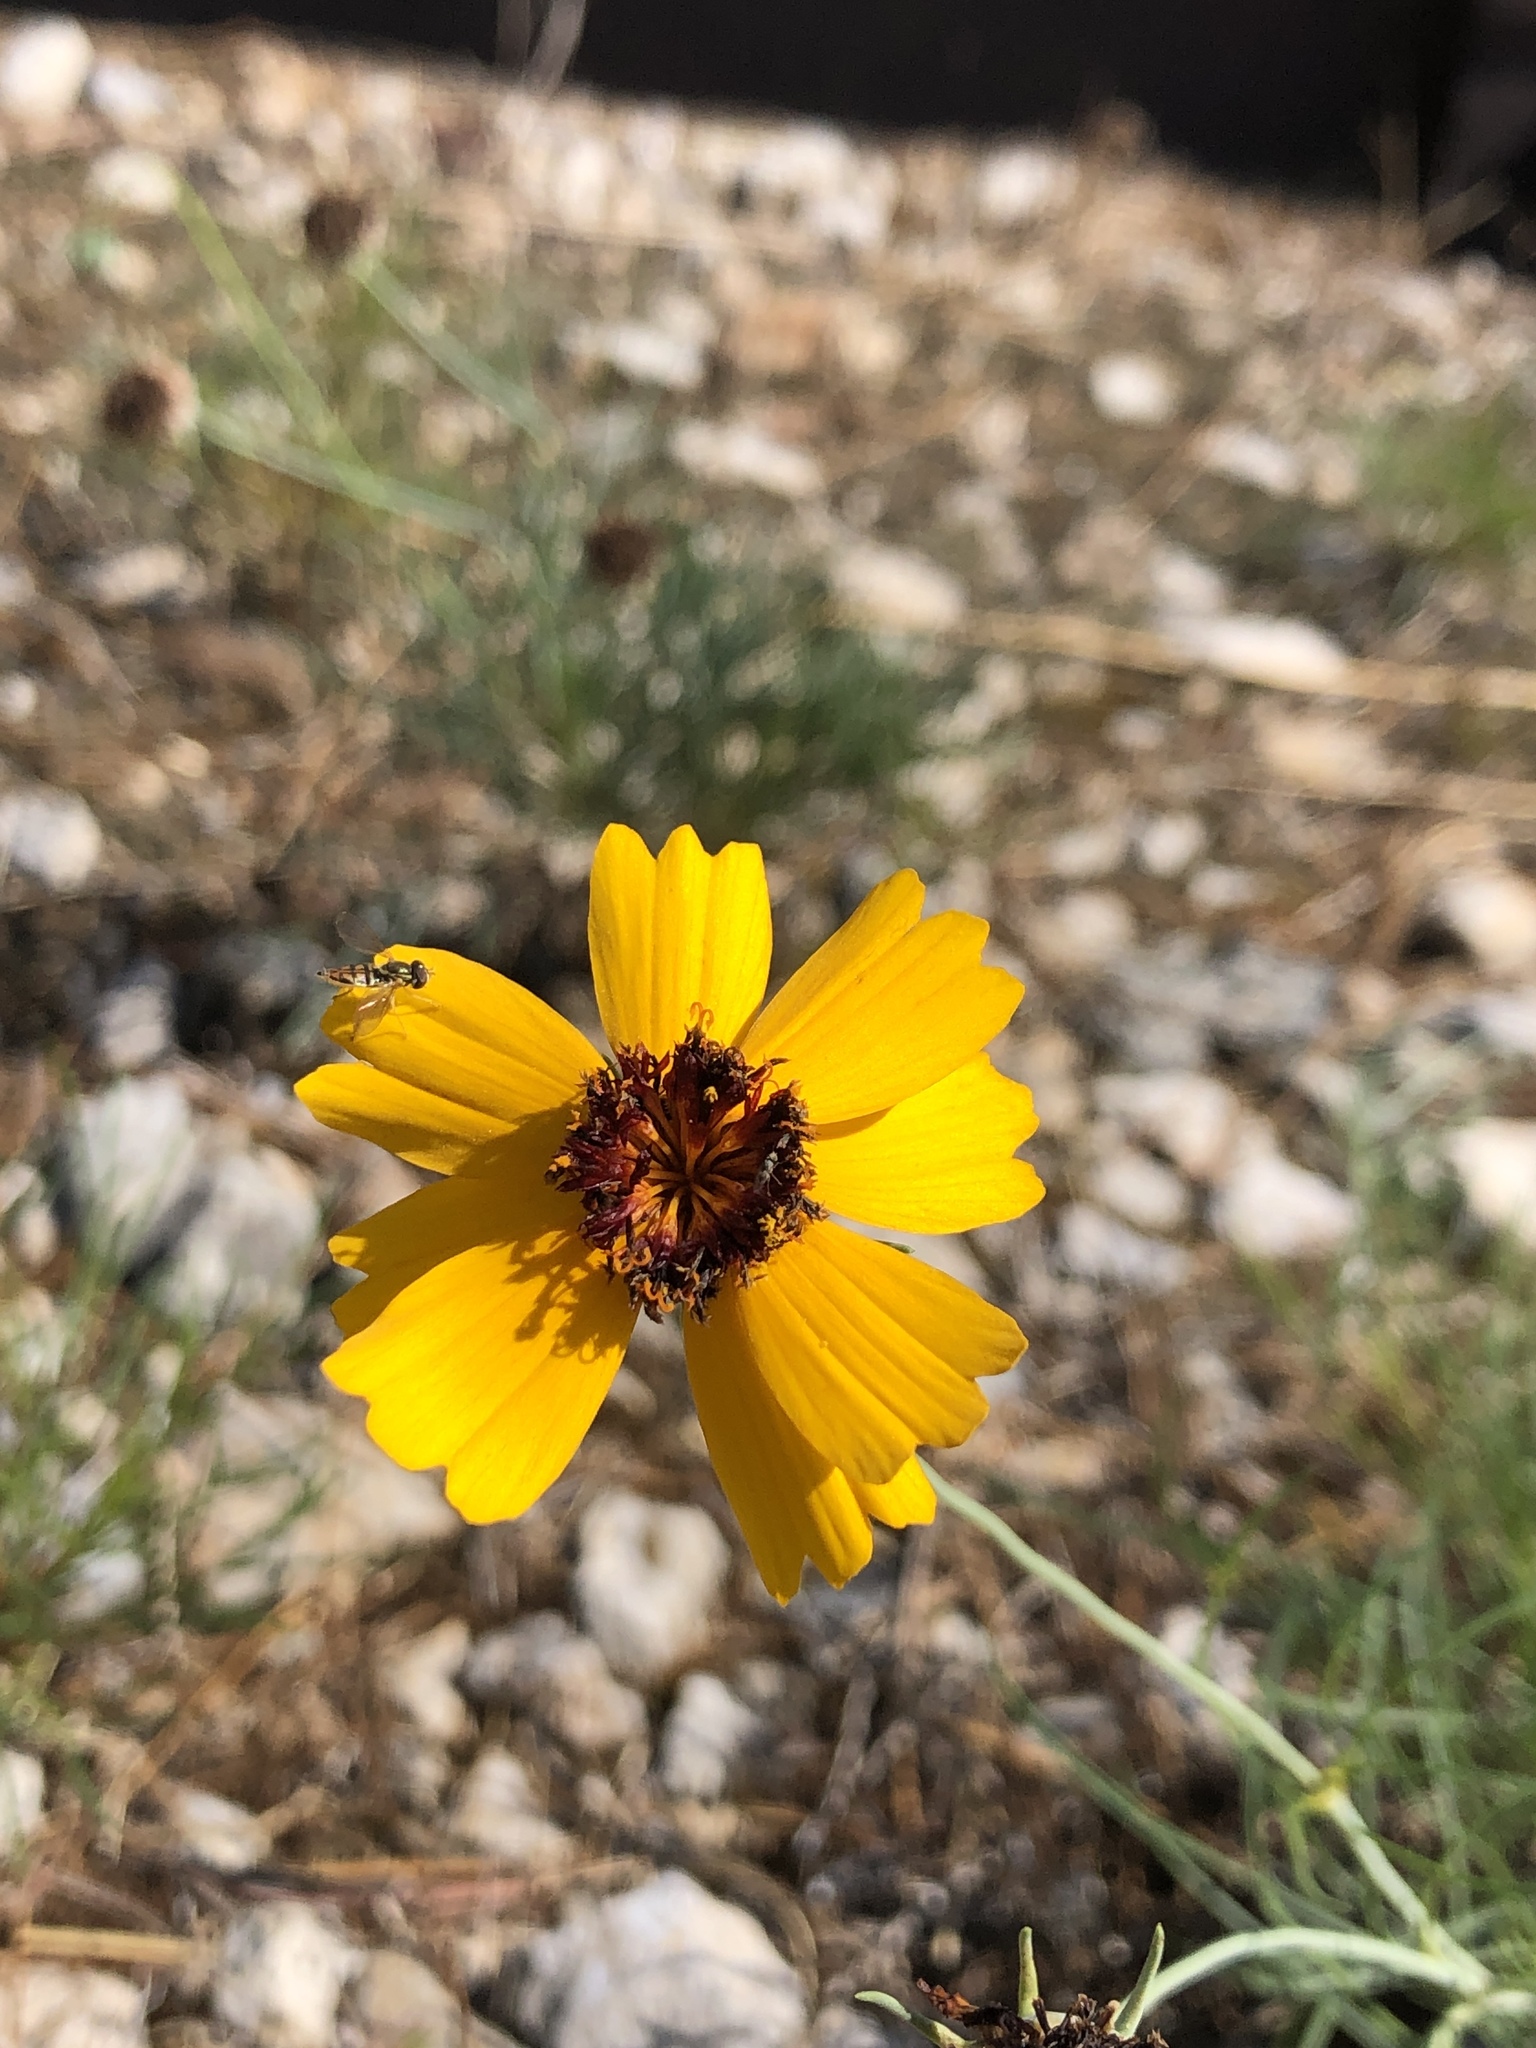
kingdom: Plantae
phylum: Tracheophyta
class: Magnoliopsida
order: Asterales
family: Asteraceae
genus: Thelesperma
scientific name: Thelesperma filifolium
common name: Stiff greenthread
